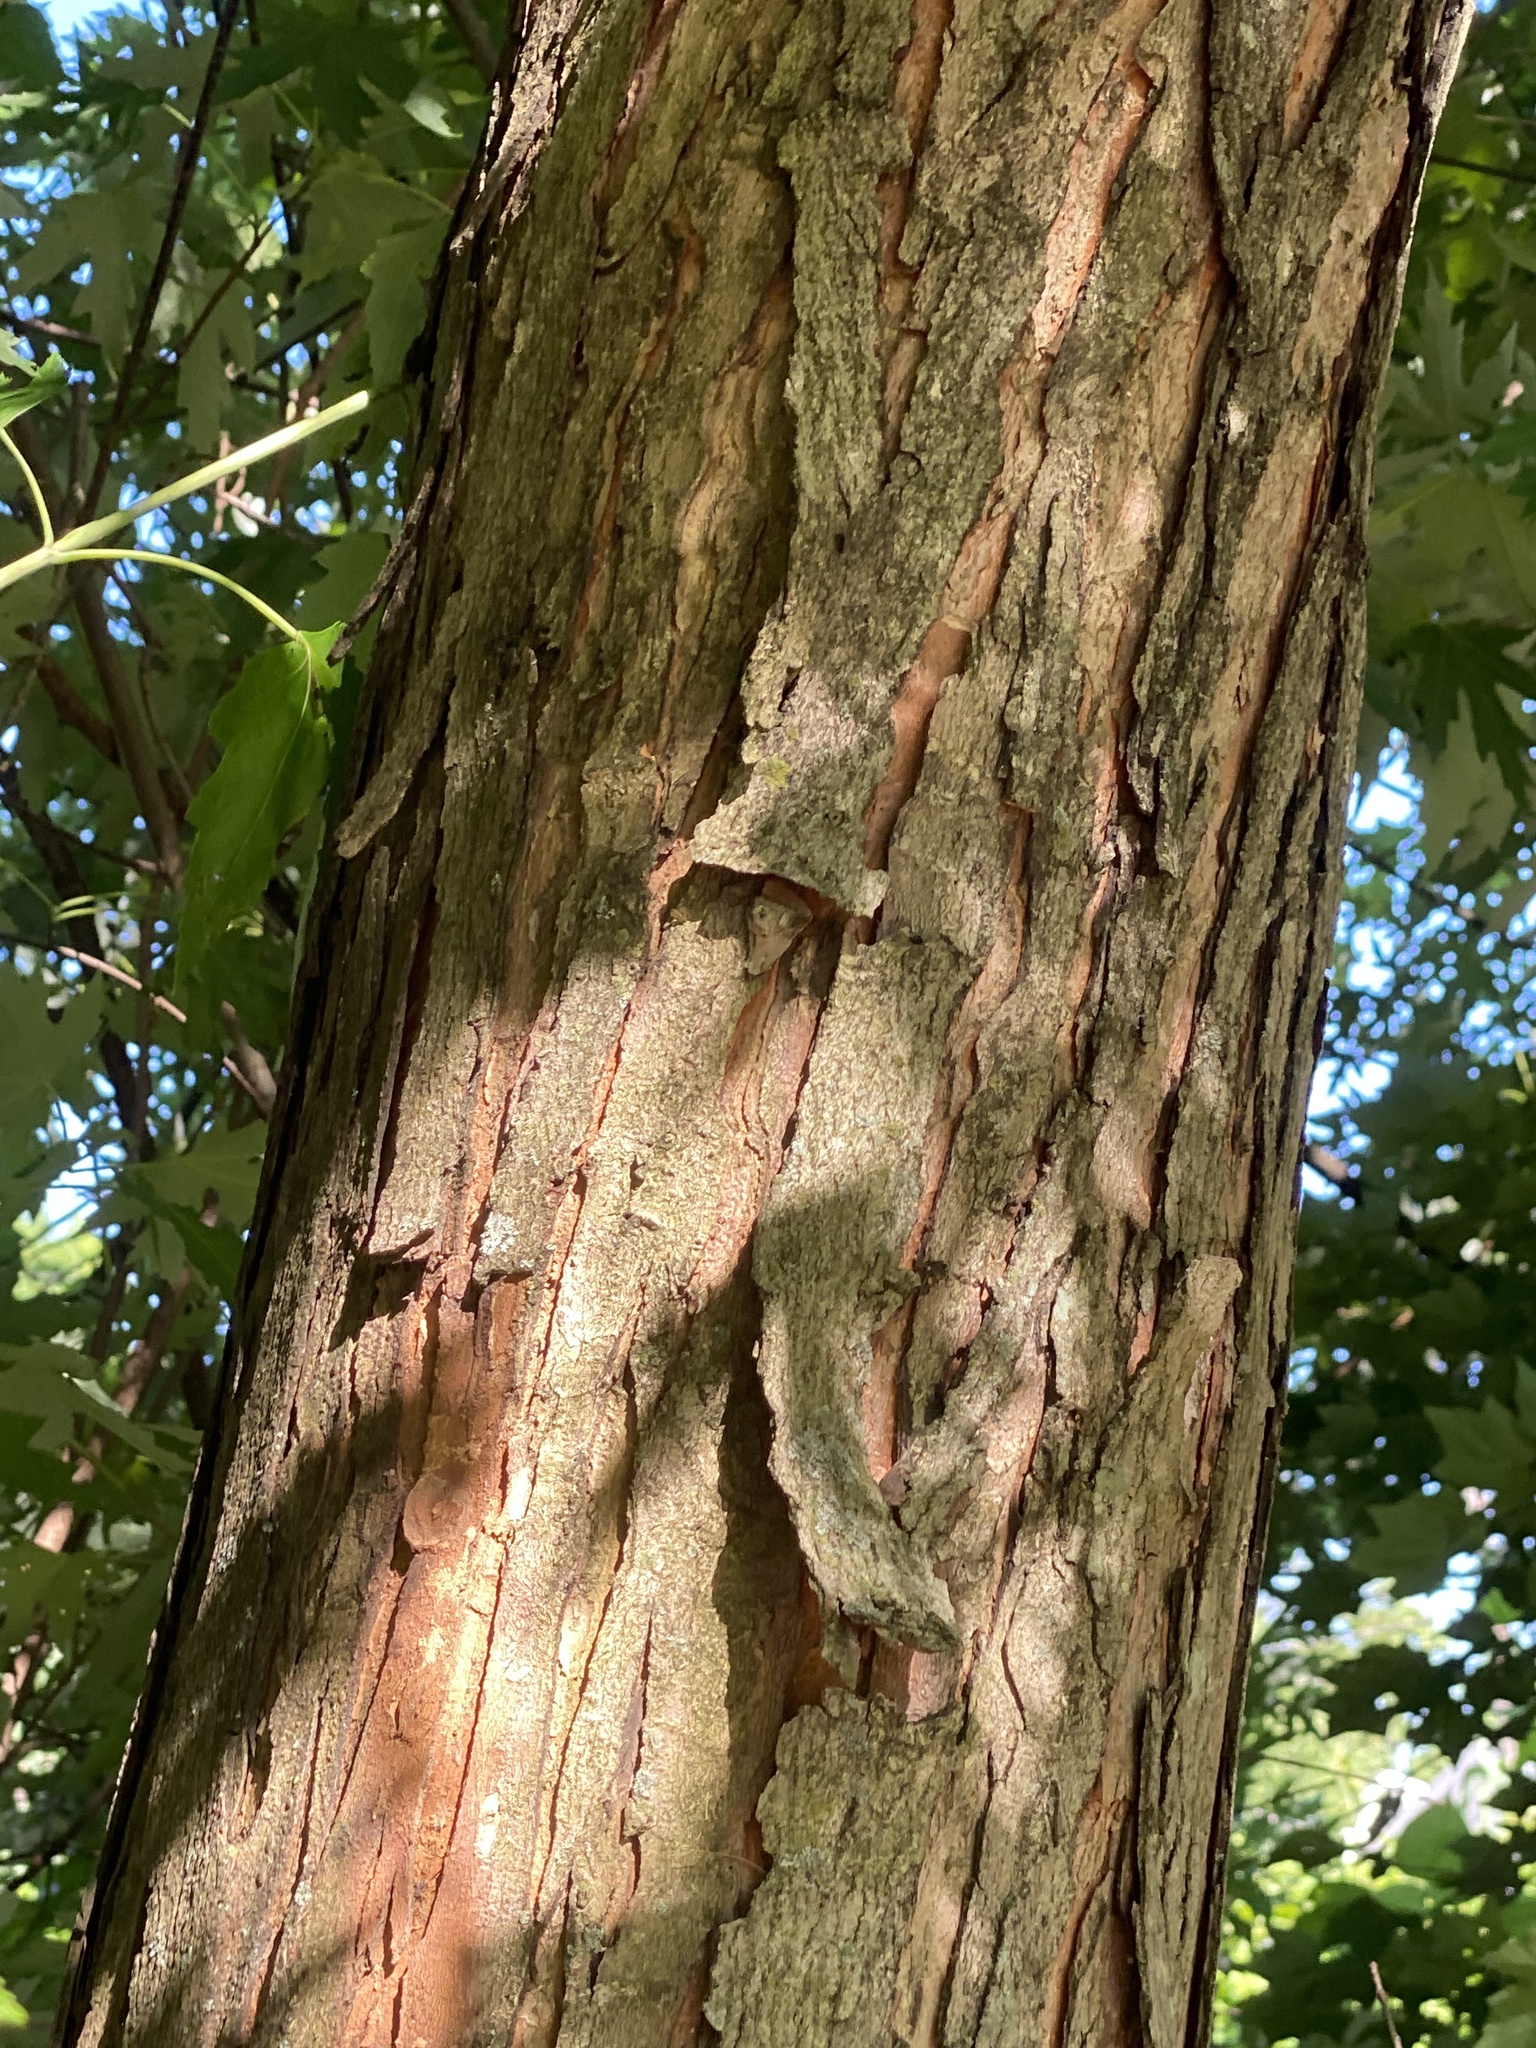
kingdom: Plantae
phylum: Tracheophyta
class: Magnoliopsida
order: Sapindales
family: Sapindaceae
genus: Acer
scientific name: Acer saccharinum
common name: Silver maple
